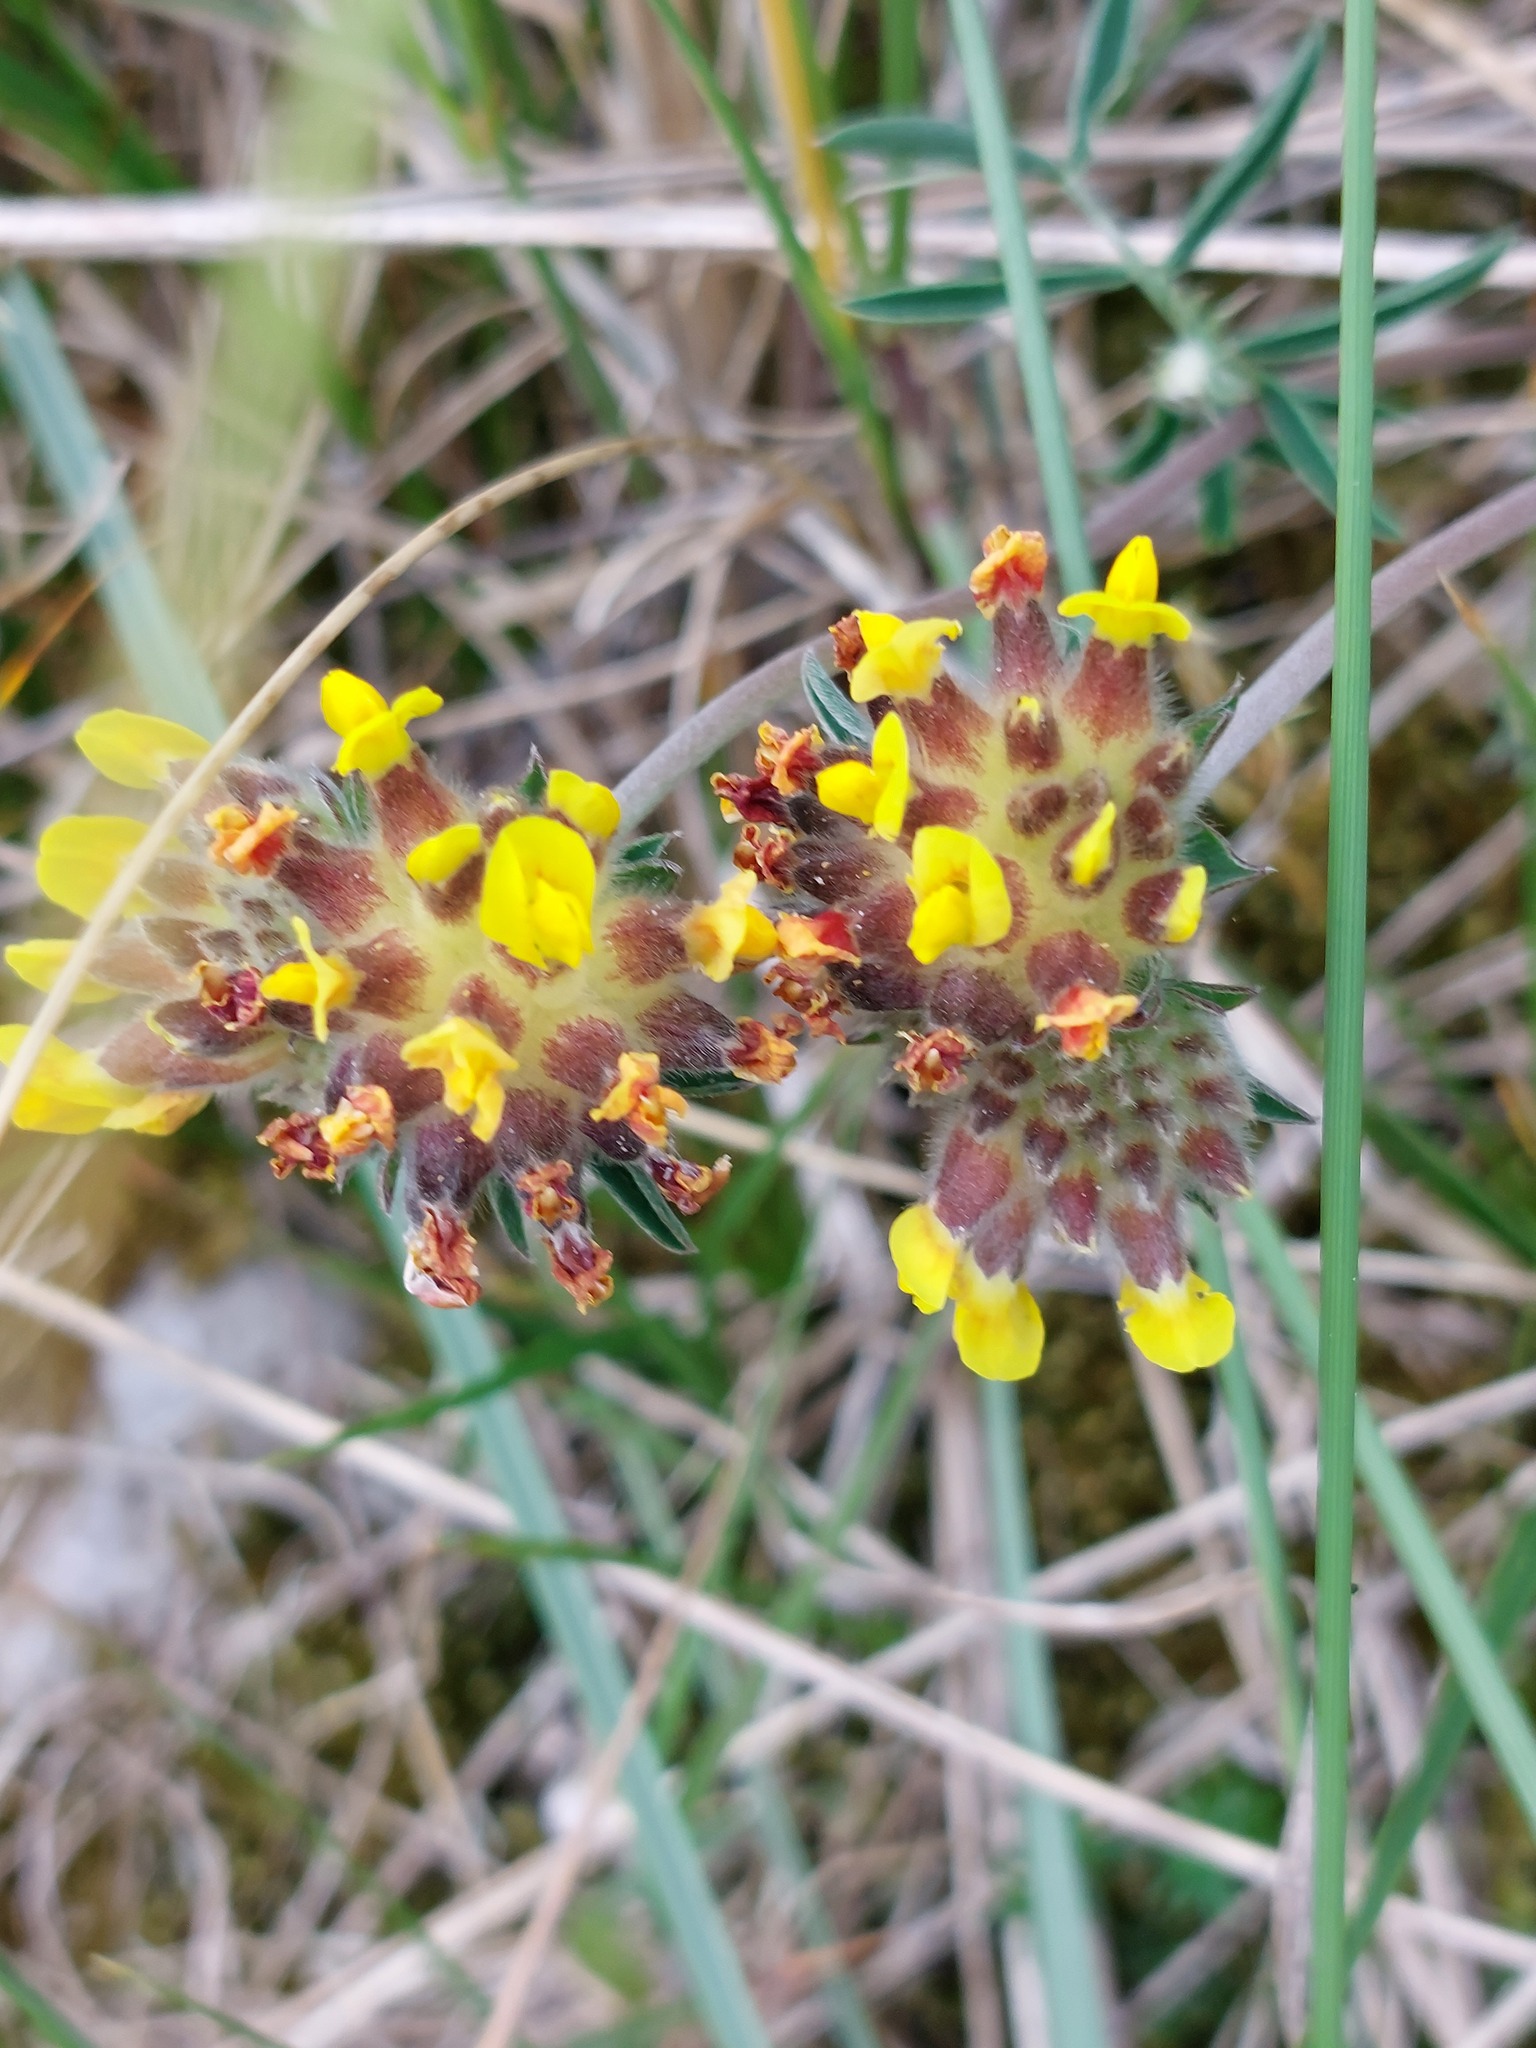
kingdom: Plantae
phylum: Tracheophyta
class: Magnoliopsida
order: Fabales
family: Fabaceae
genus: Anthyllis
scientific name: Anthyllis vulneraria
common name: Kidney vetch
